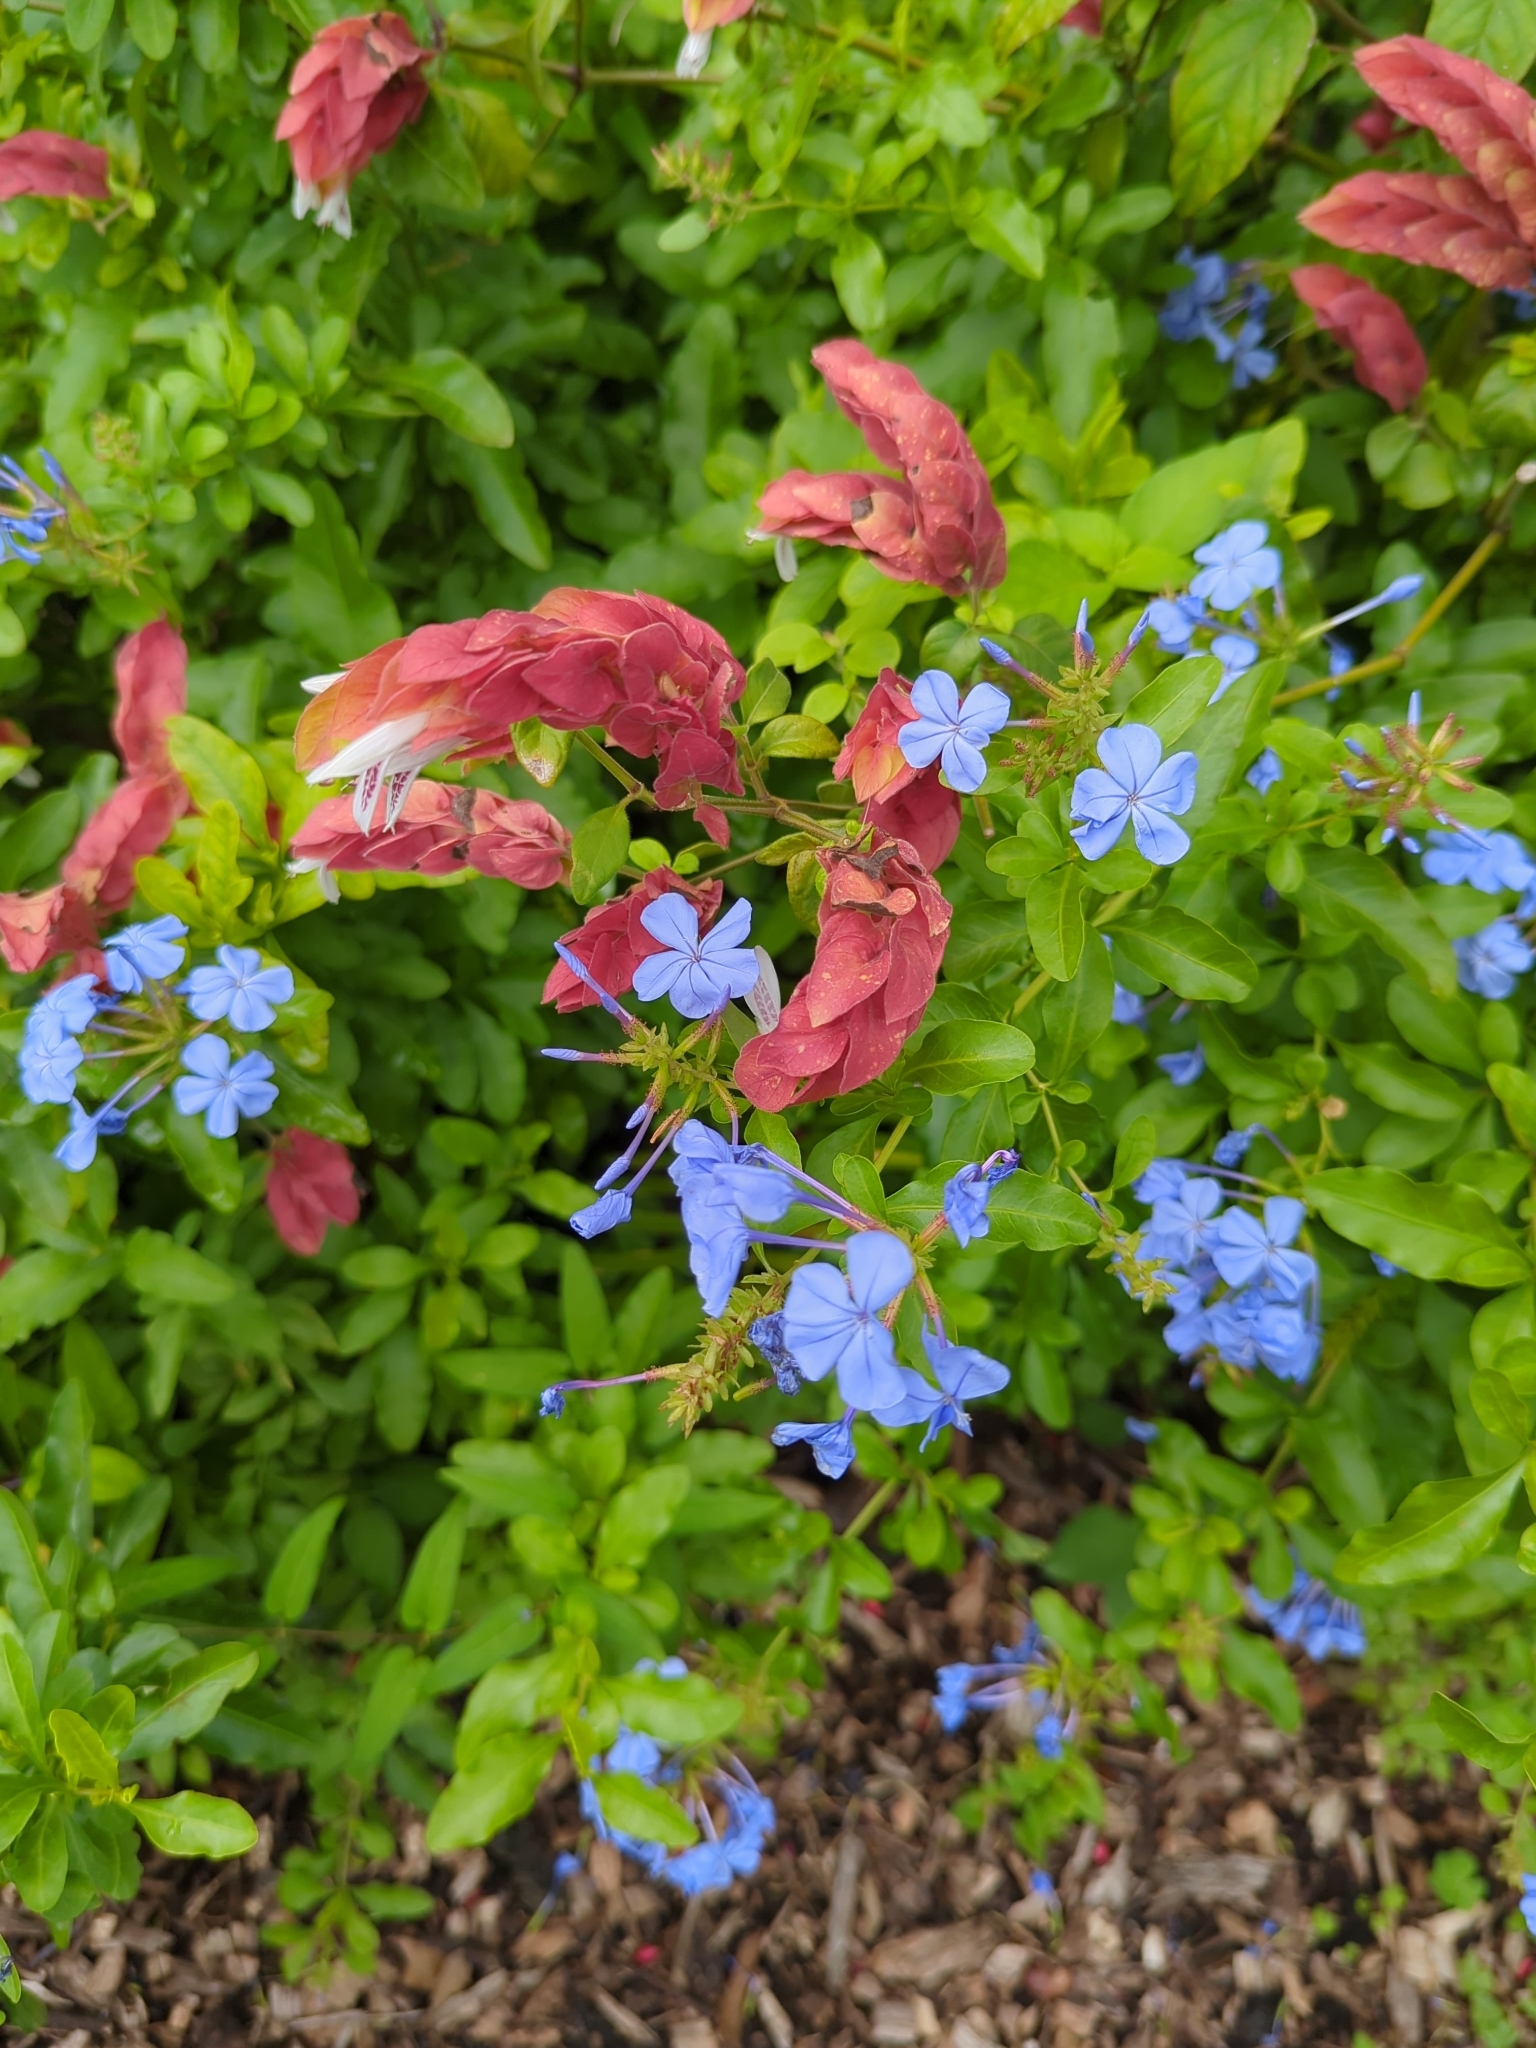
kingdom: Plantae
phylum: Tracheophyta
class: Magnoliopsida
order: Caryophyllales
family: Plumbaginaceae
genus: Plumbago
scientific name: Plumbago auriculata
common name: Cape leadwort
